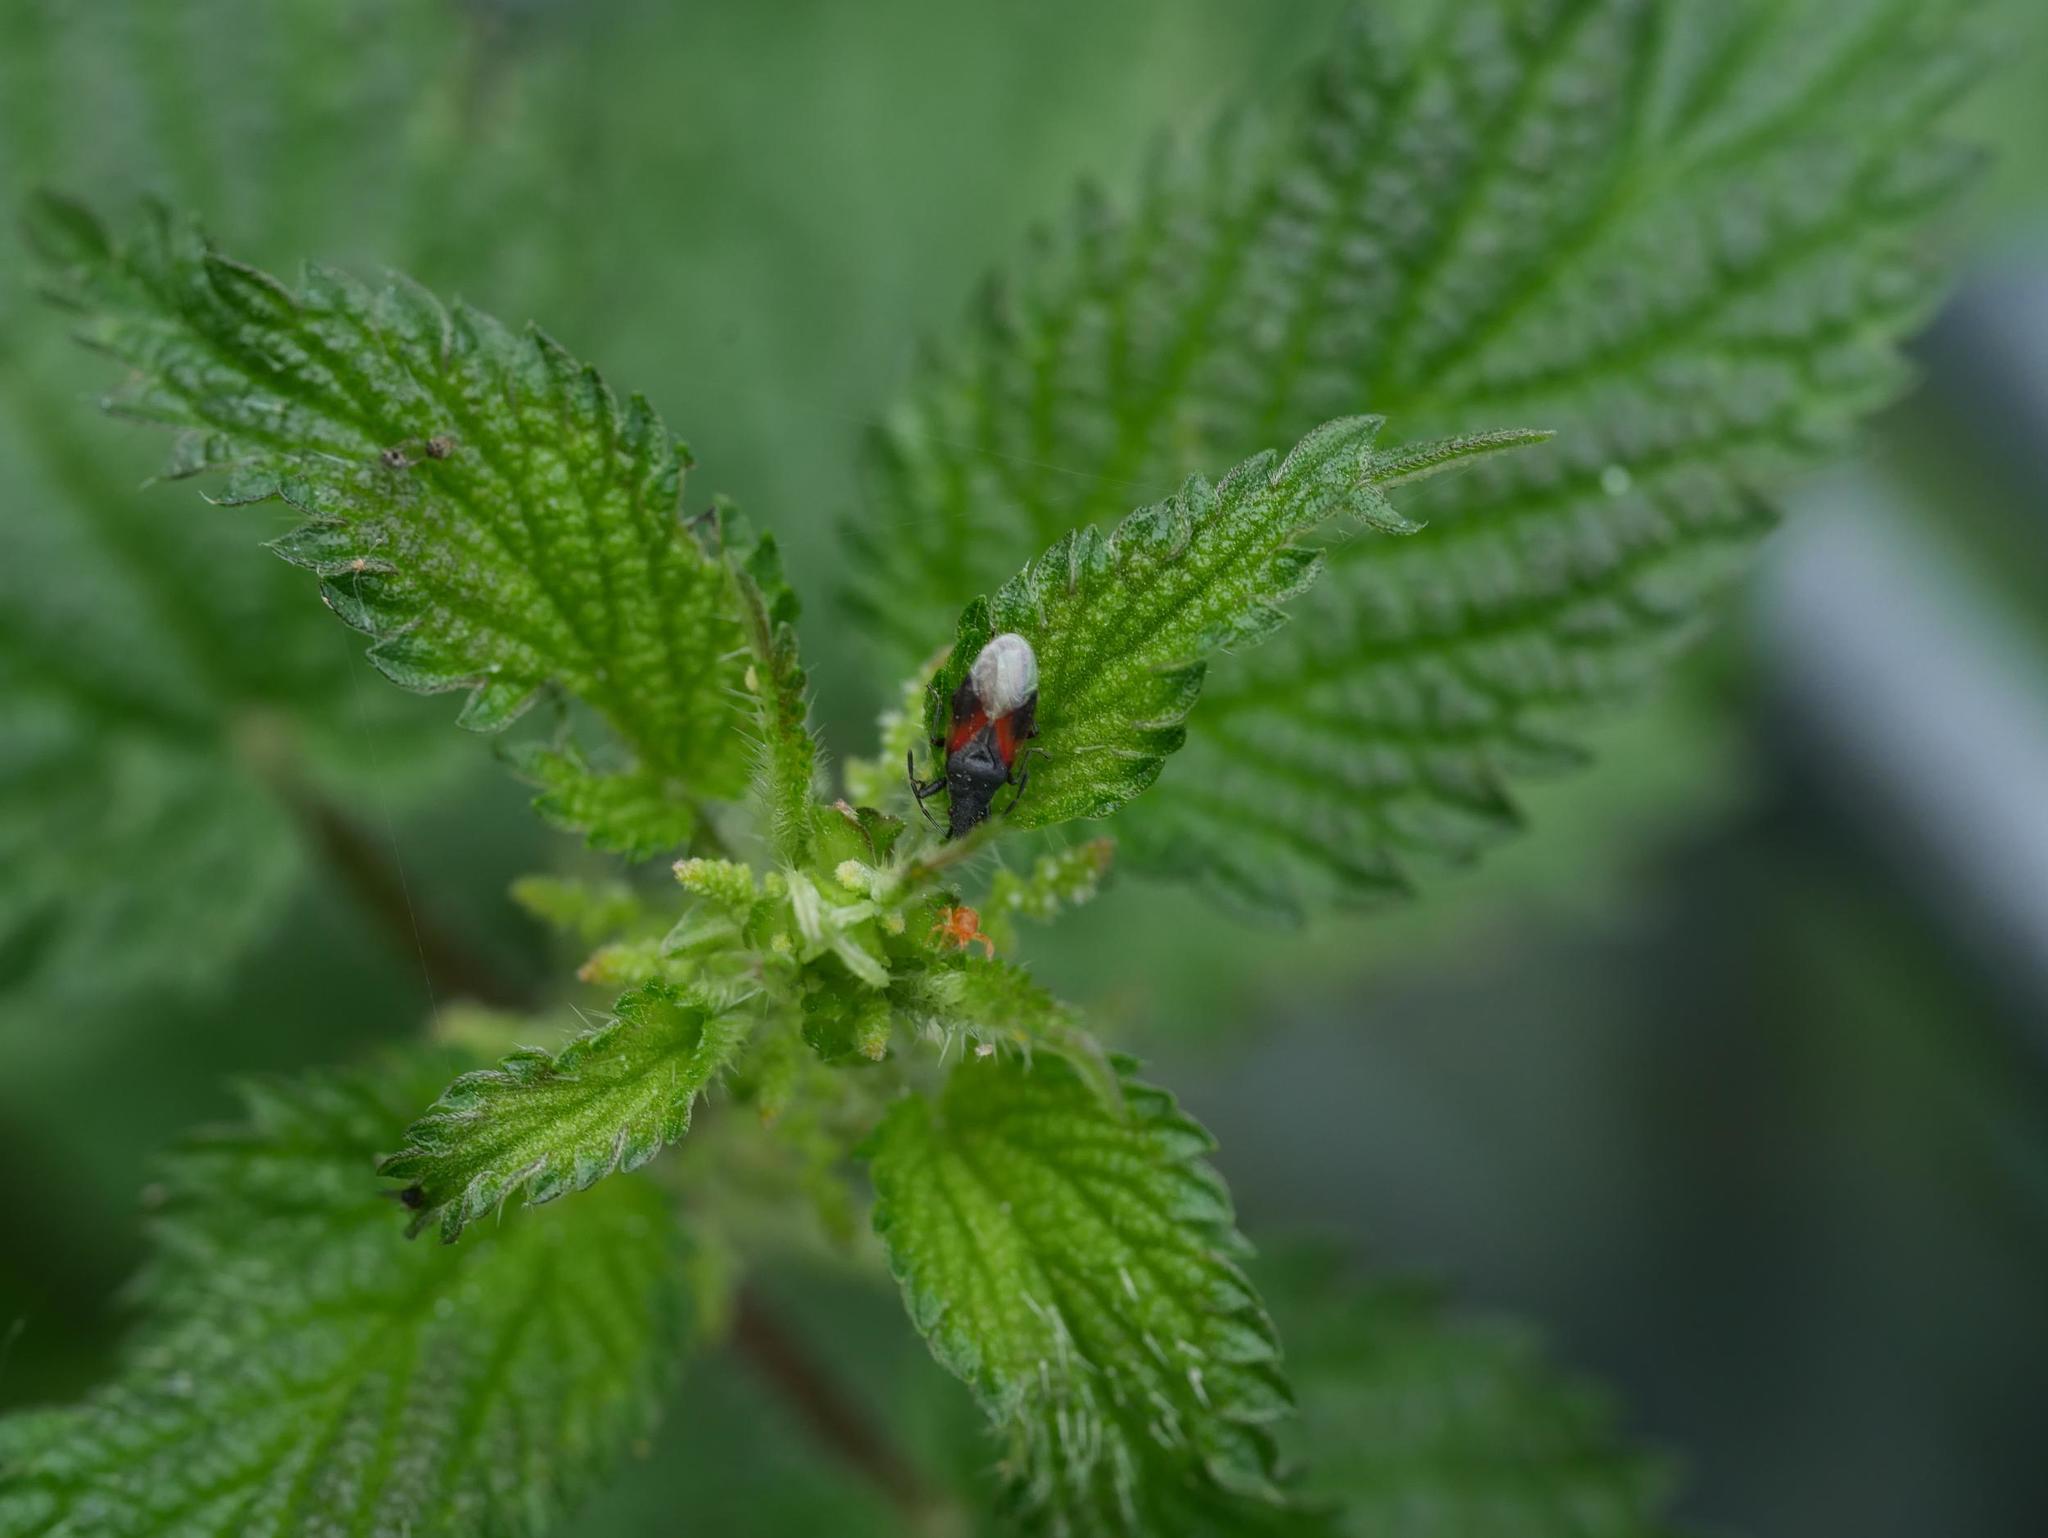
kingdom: Plantae
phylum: Tracheophyta
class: Magnoliopsida
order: Rosales
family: Urticaceae
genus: Urtica
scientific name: Urtica dioica
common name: Common nettle
